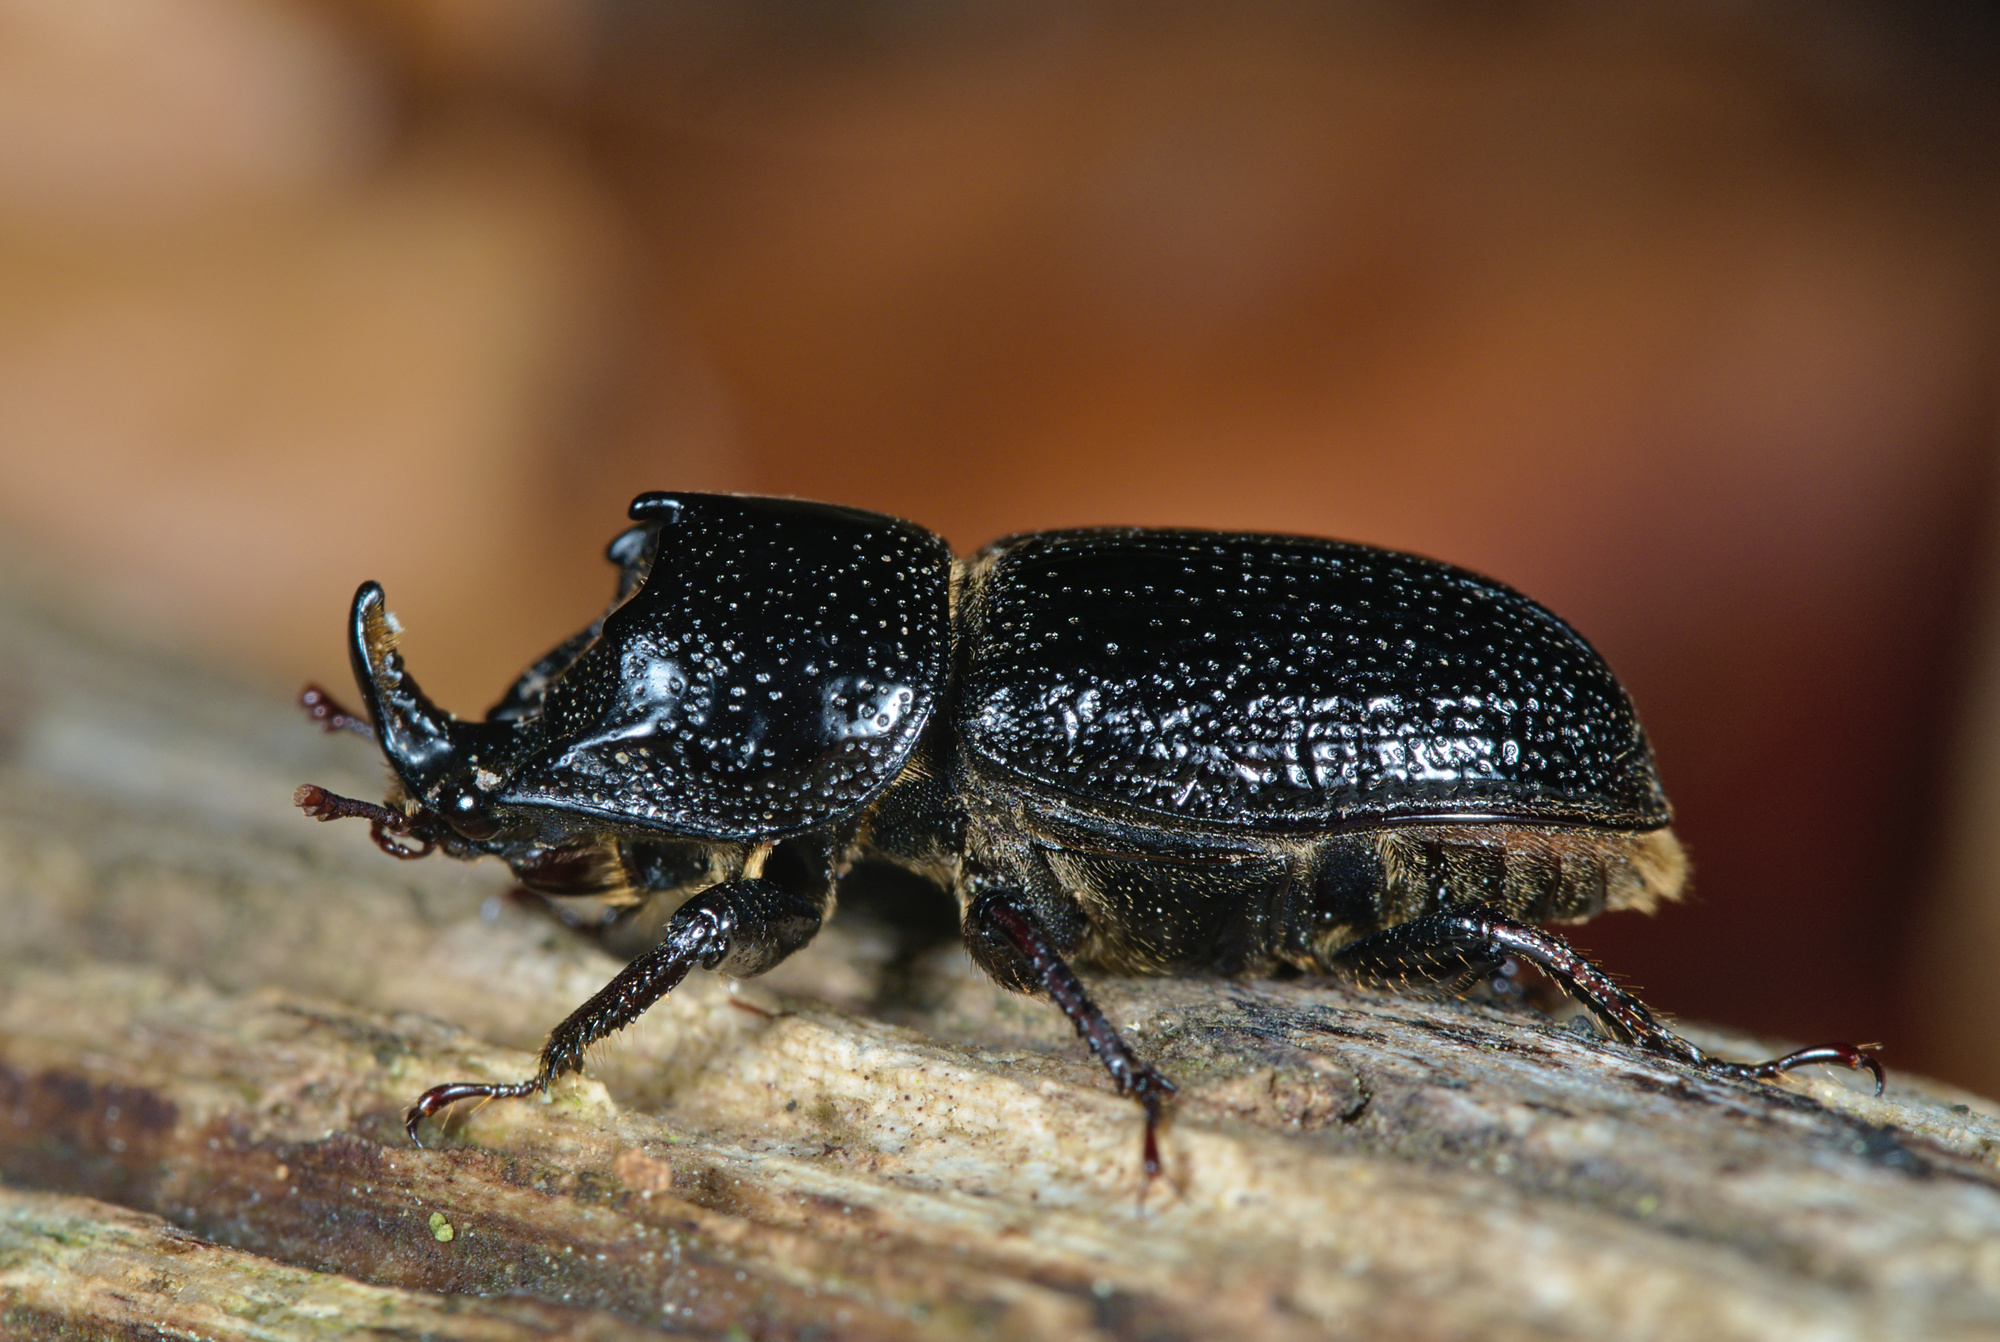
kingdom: Animalia
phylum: Arthropoda
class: Insecta
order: Coleoptera
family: Lucanidae
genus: Sinodendron
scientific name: Sinodendron cylindricum
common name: Rhinoceros beetle
